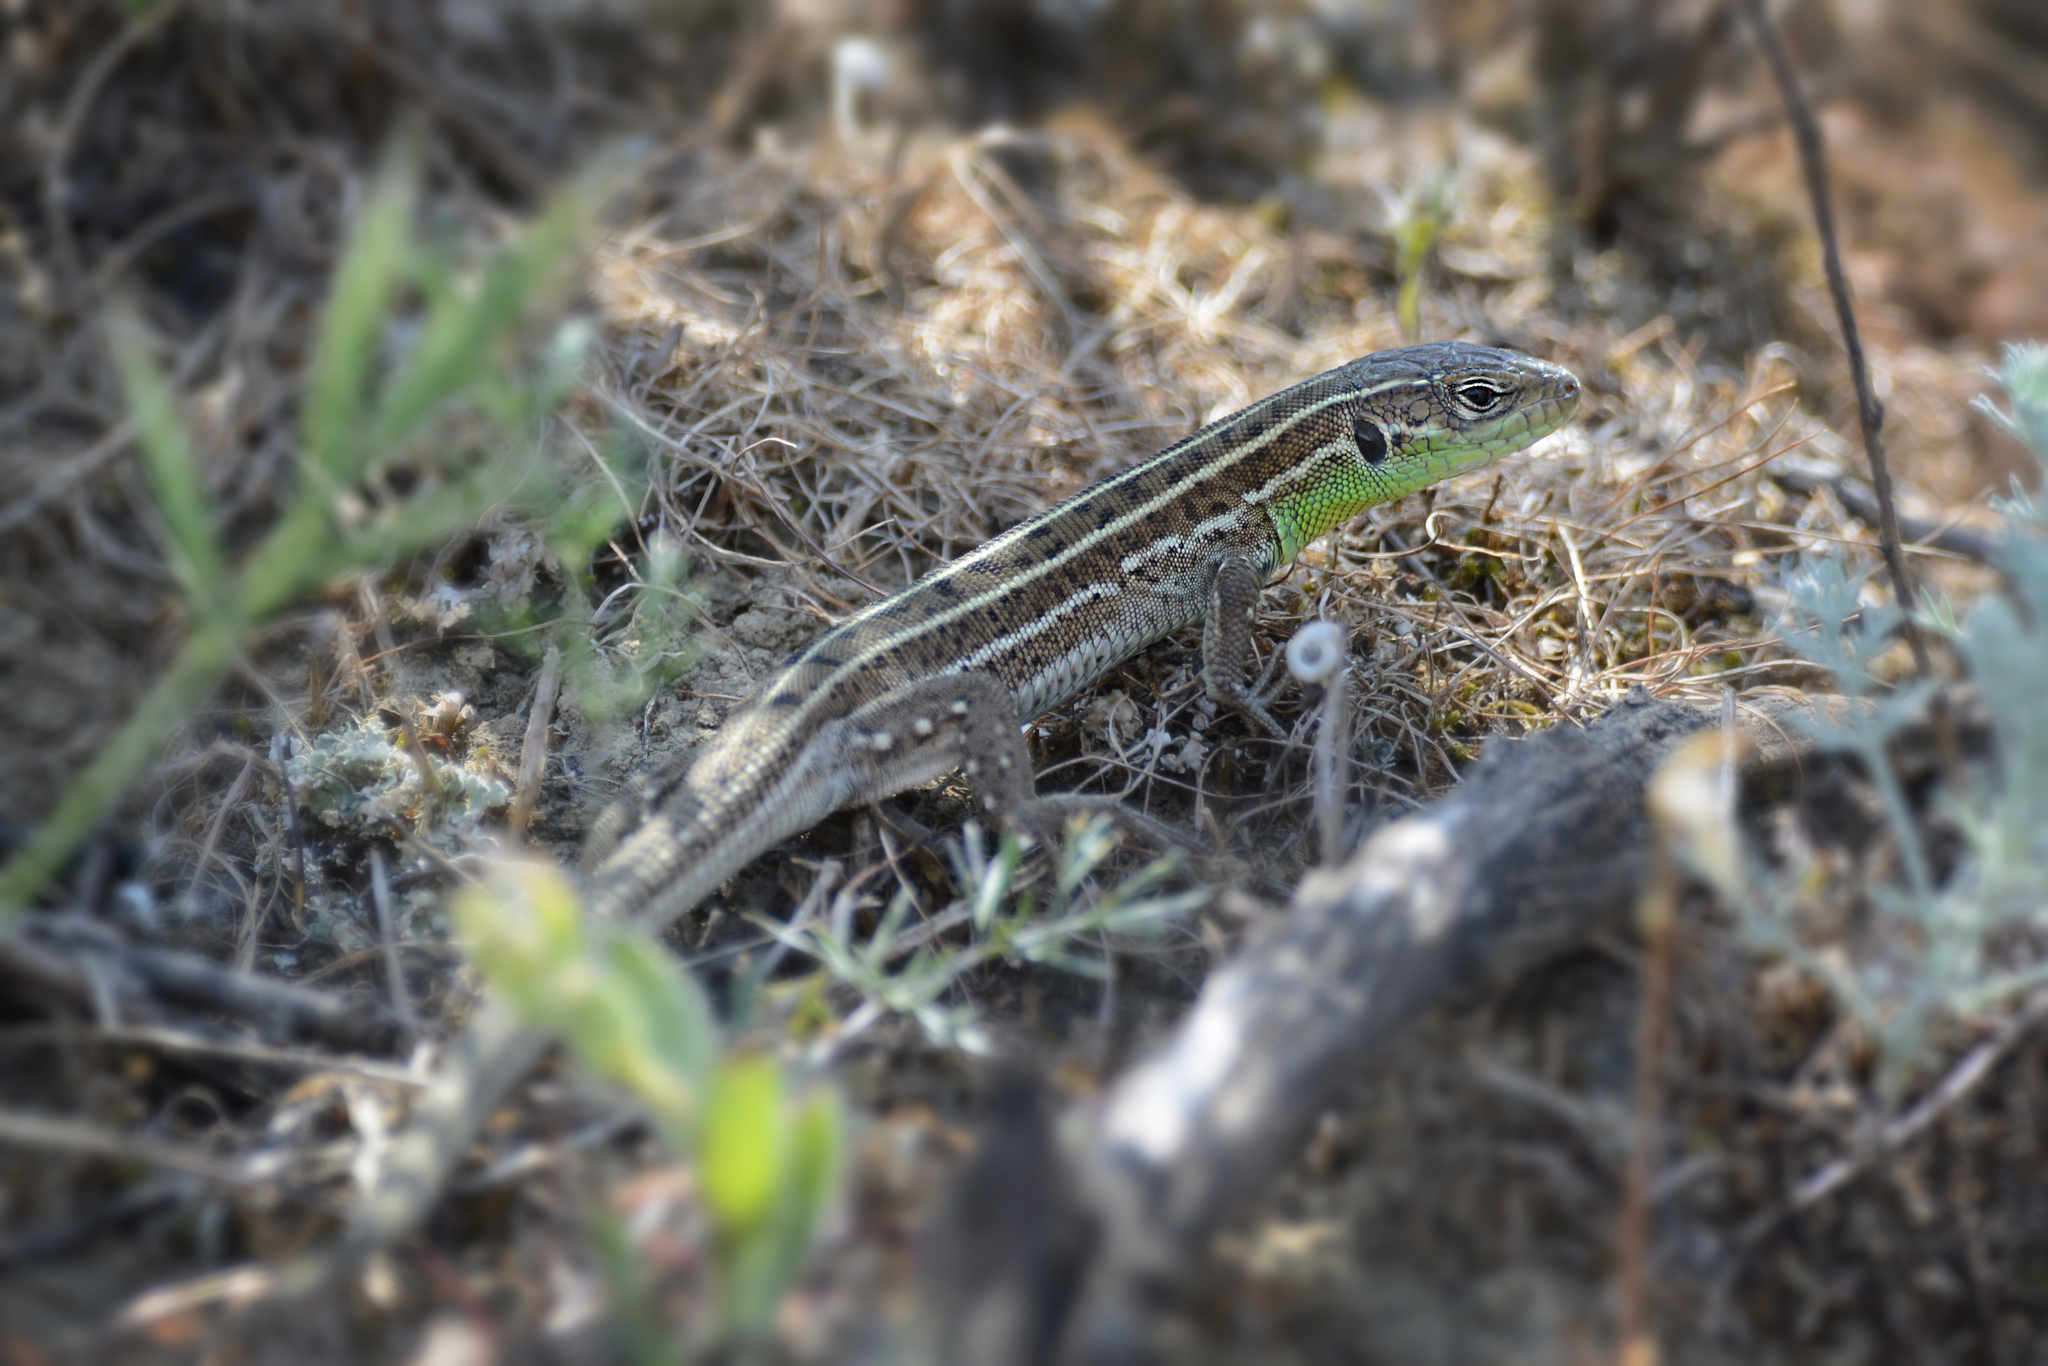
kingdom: Animalia
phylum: Chordata
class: Squamata
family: Lacertidae
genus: Lacerta
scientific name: Lacerta strigata
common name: Caspian green lizard
